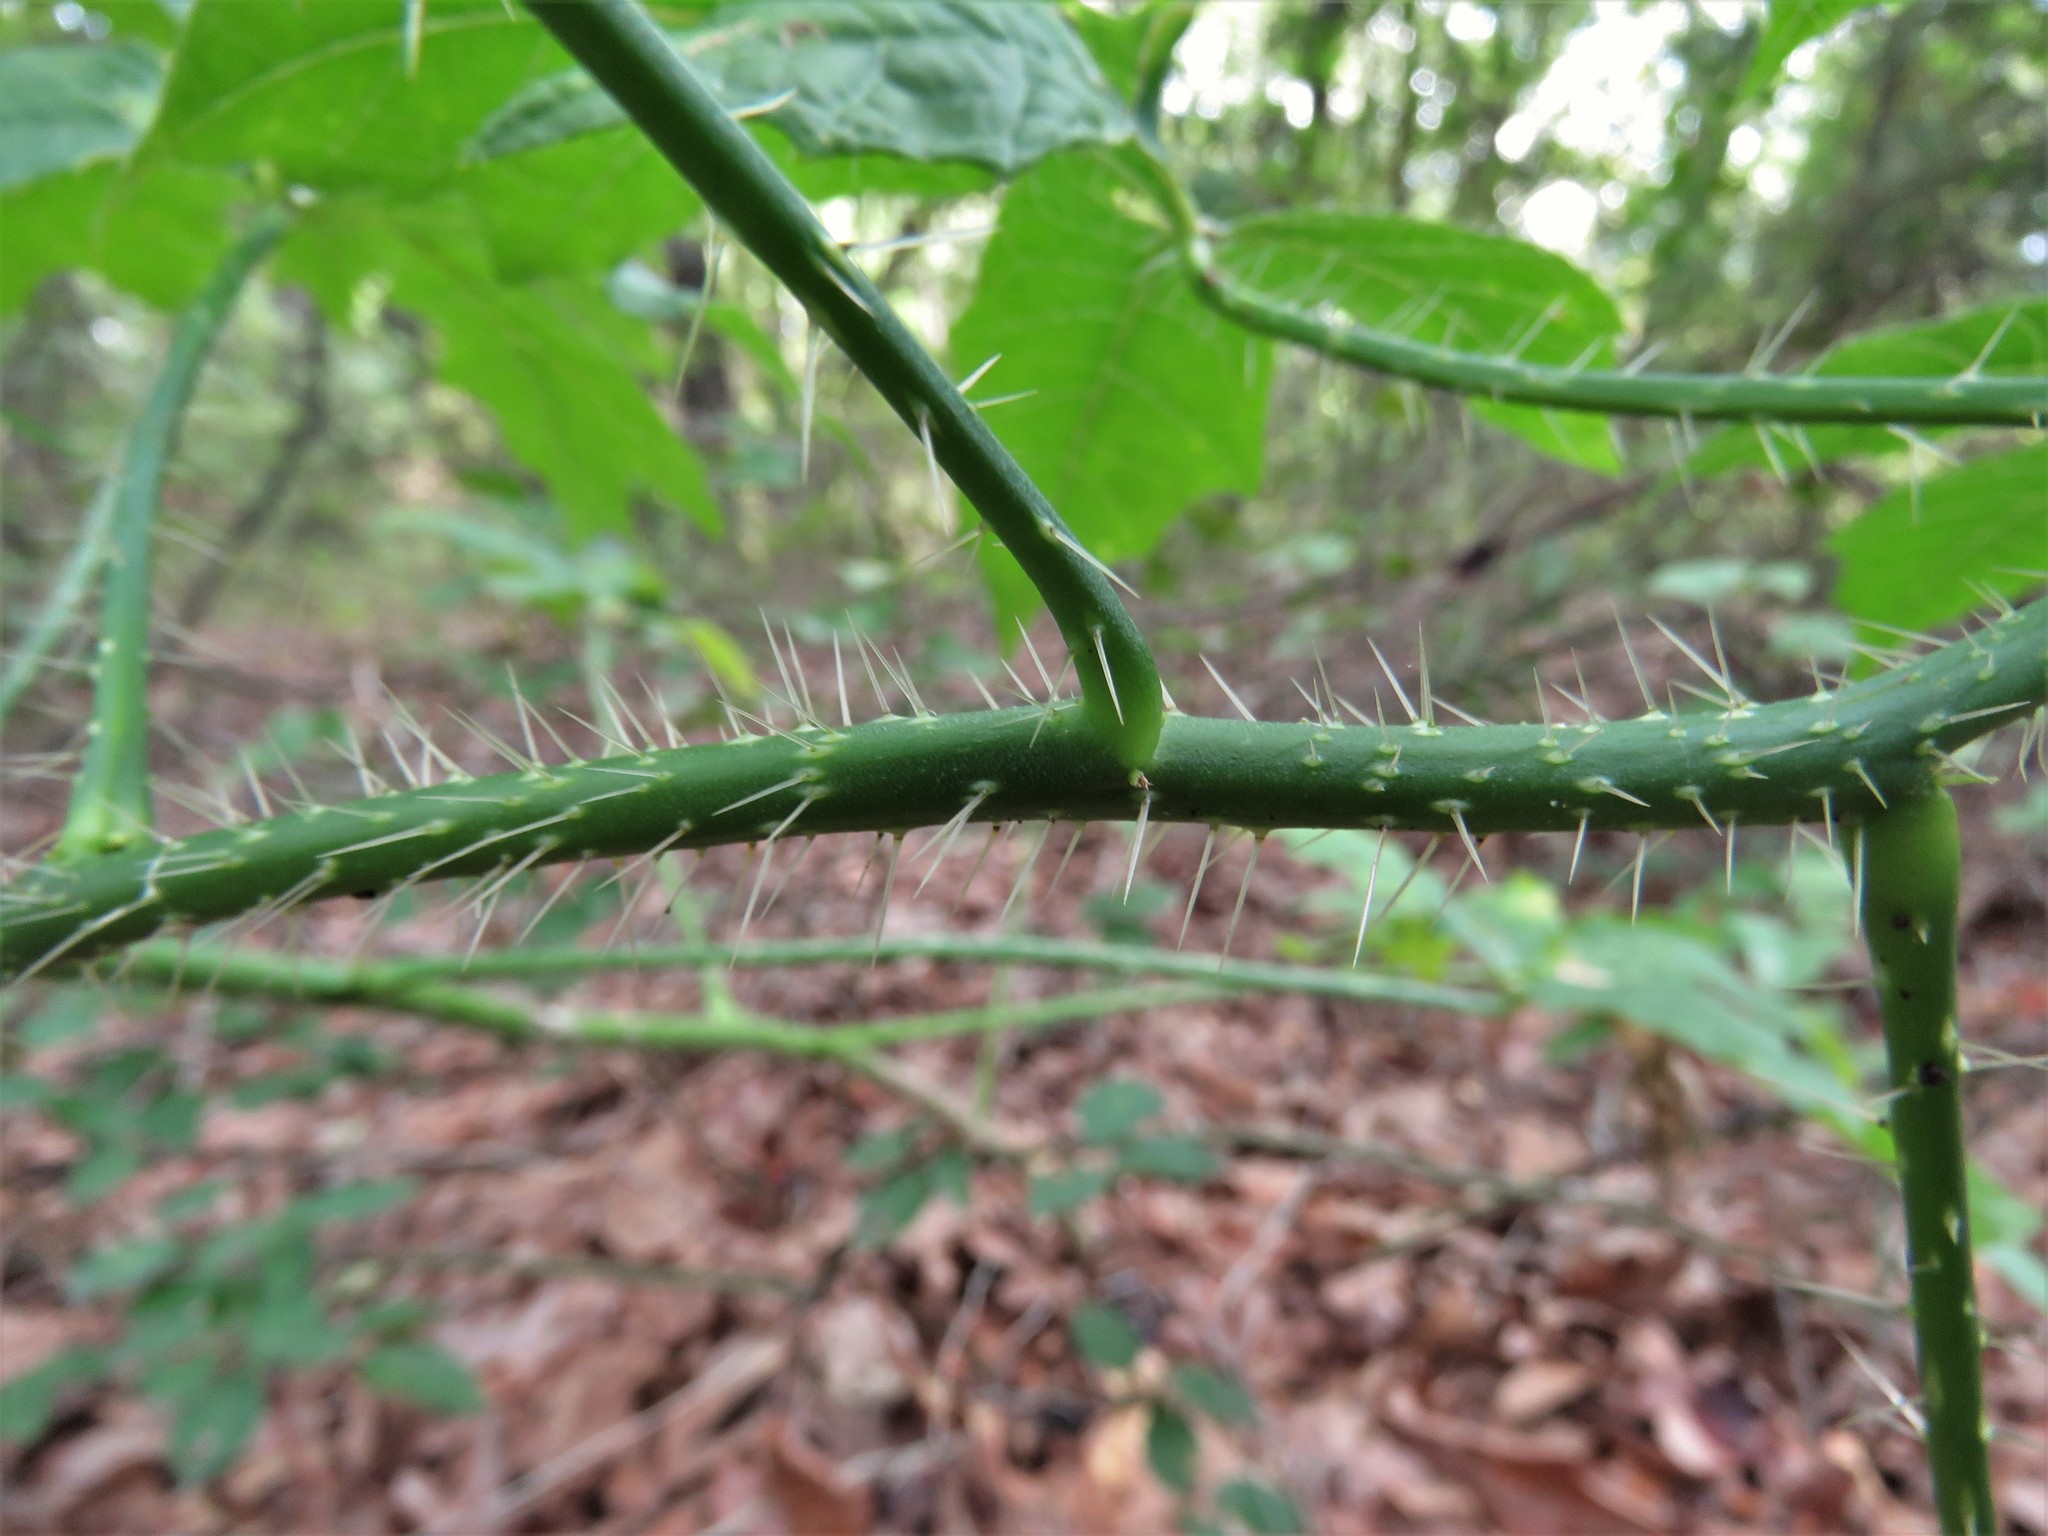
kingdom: Plantae
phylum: Tracheophyta
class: Magnoliopsida
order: Malpighiales
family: Euphorbiaceae
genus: Cnidoscolus
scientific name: Cnidoscolus texanus
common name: Texas bull-nettle
